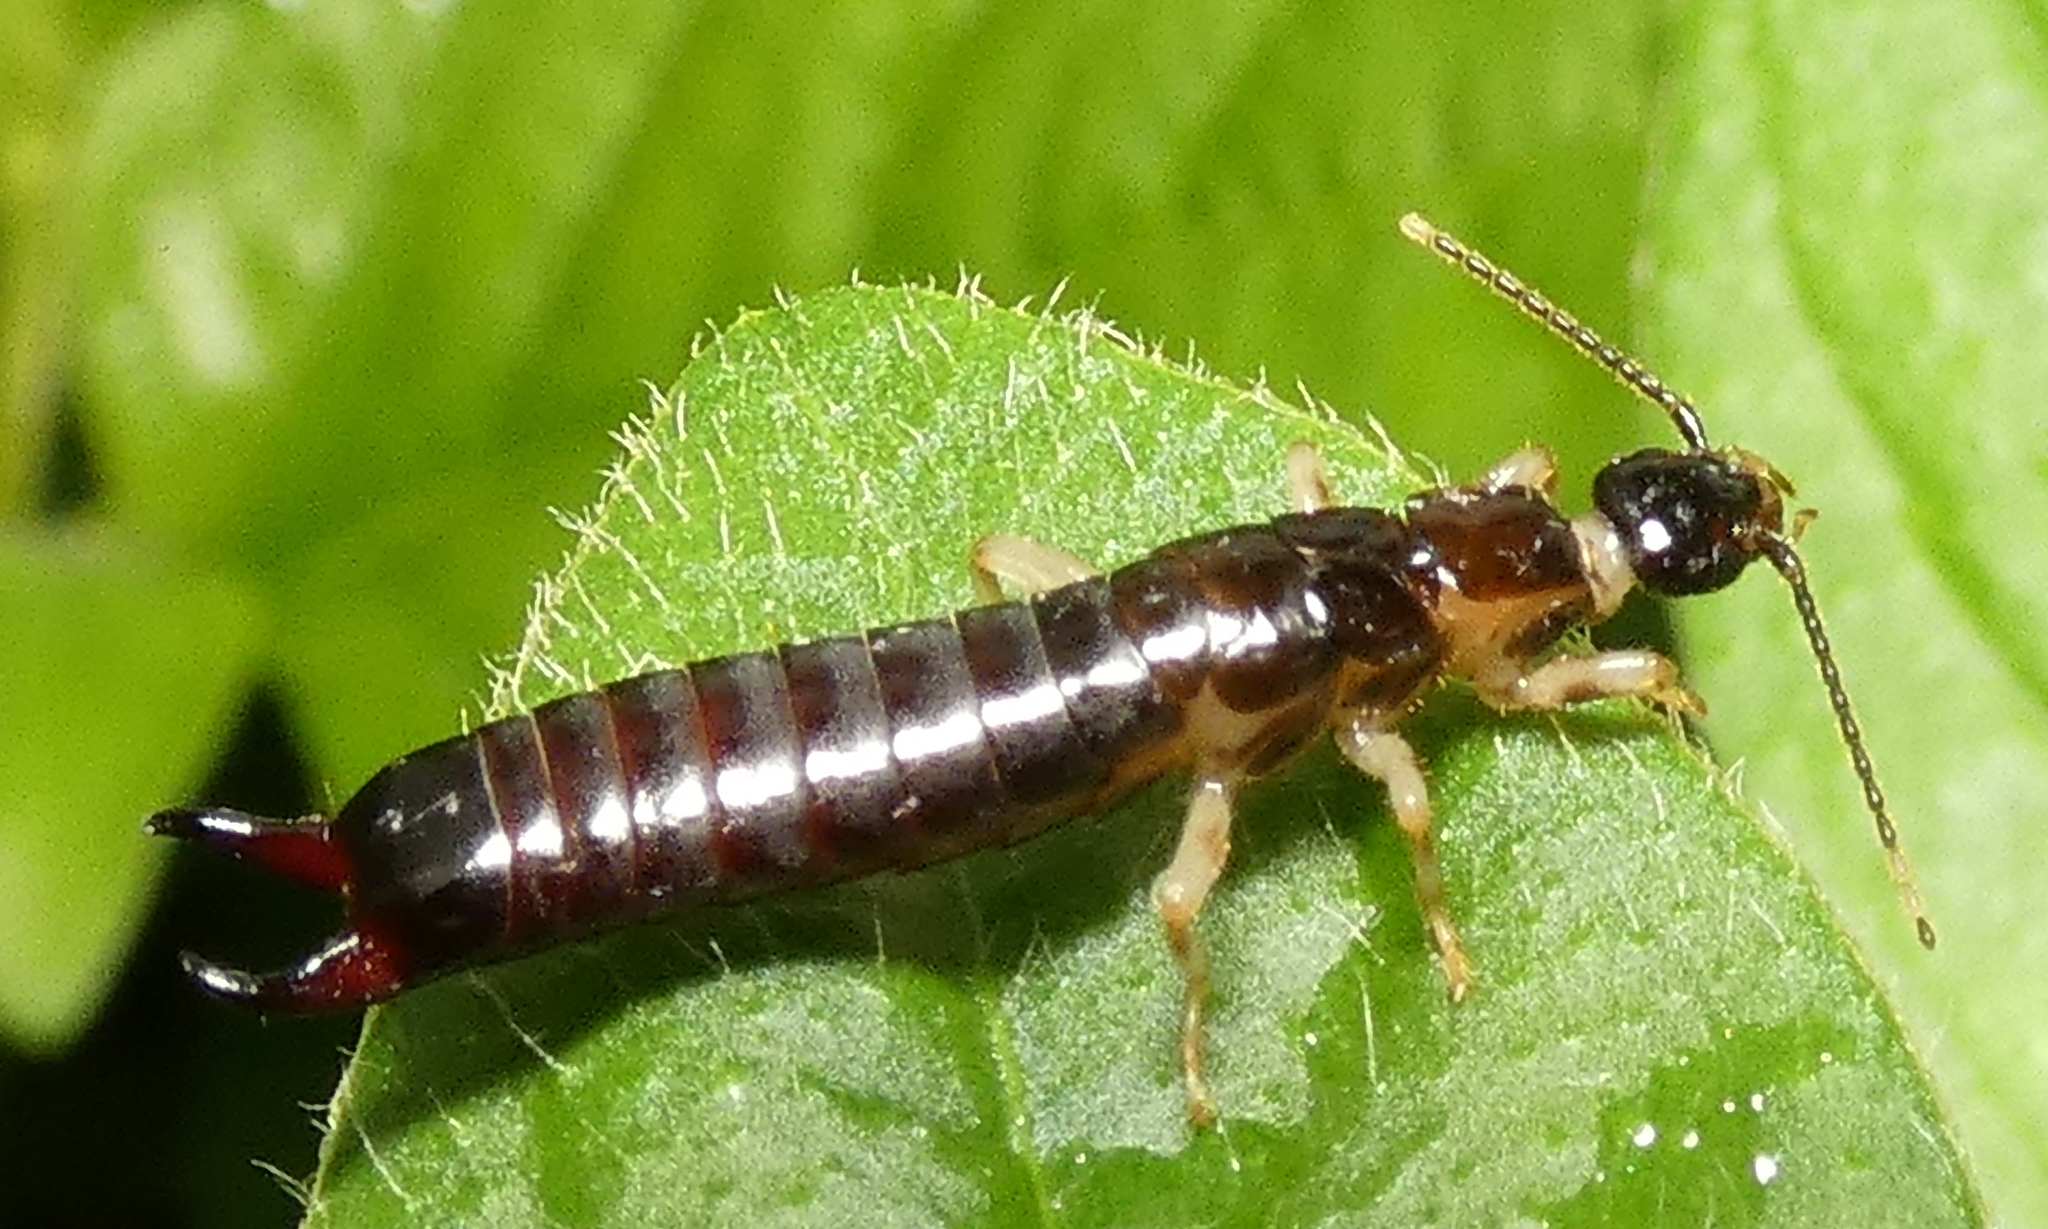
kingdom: Animalia
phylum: Arthropoda
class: Insecta
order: Dermaptera
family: Anisolabididae
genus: Euborellia
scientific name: Euborellia janeirensis
